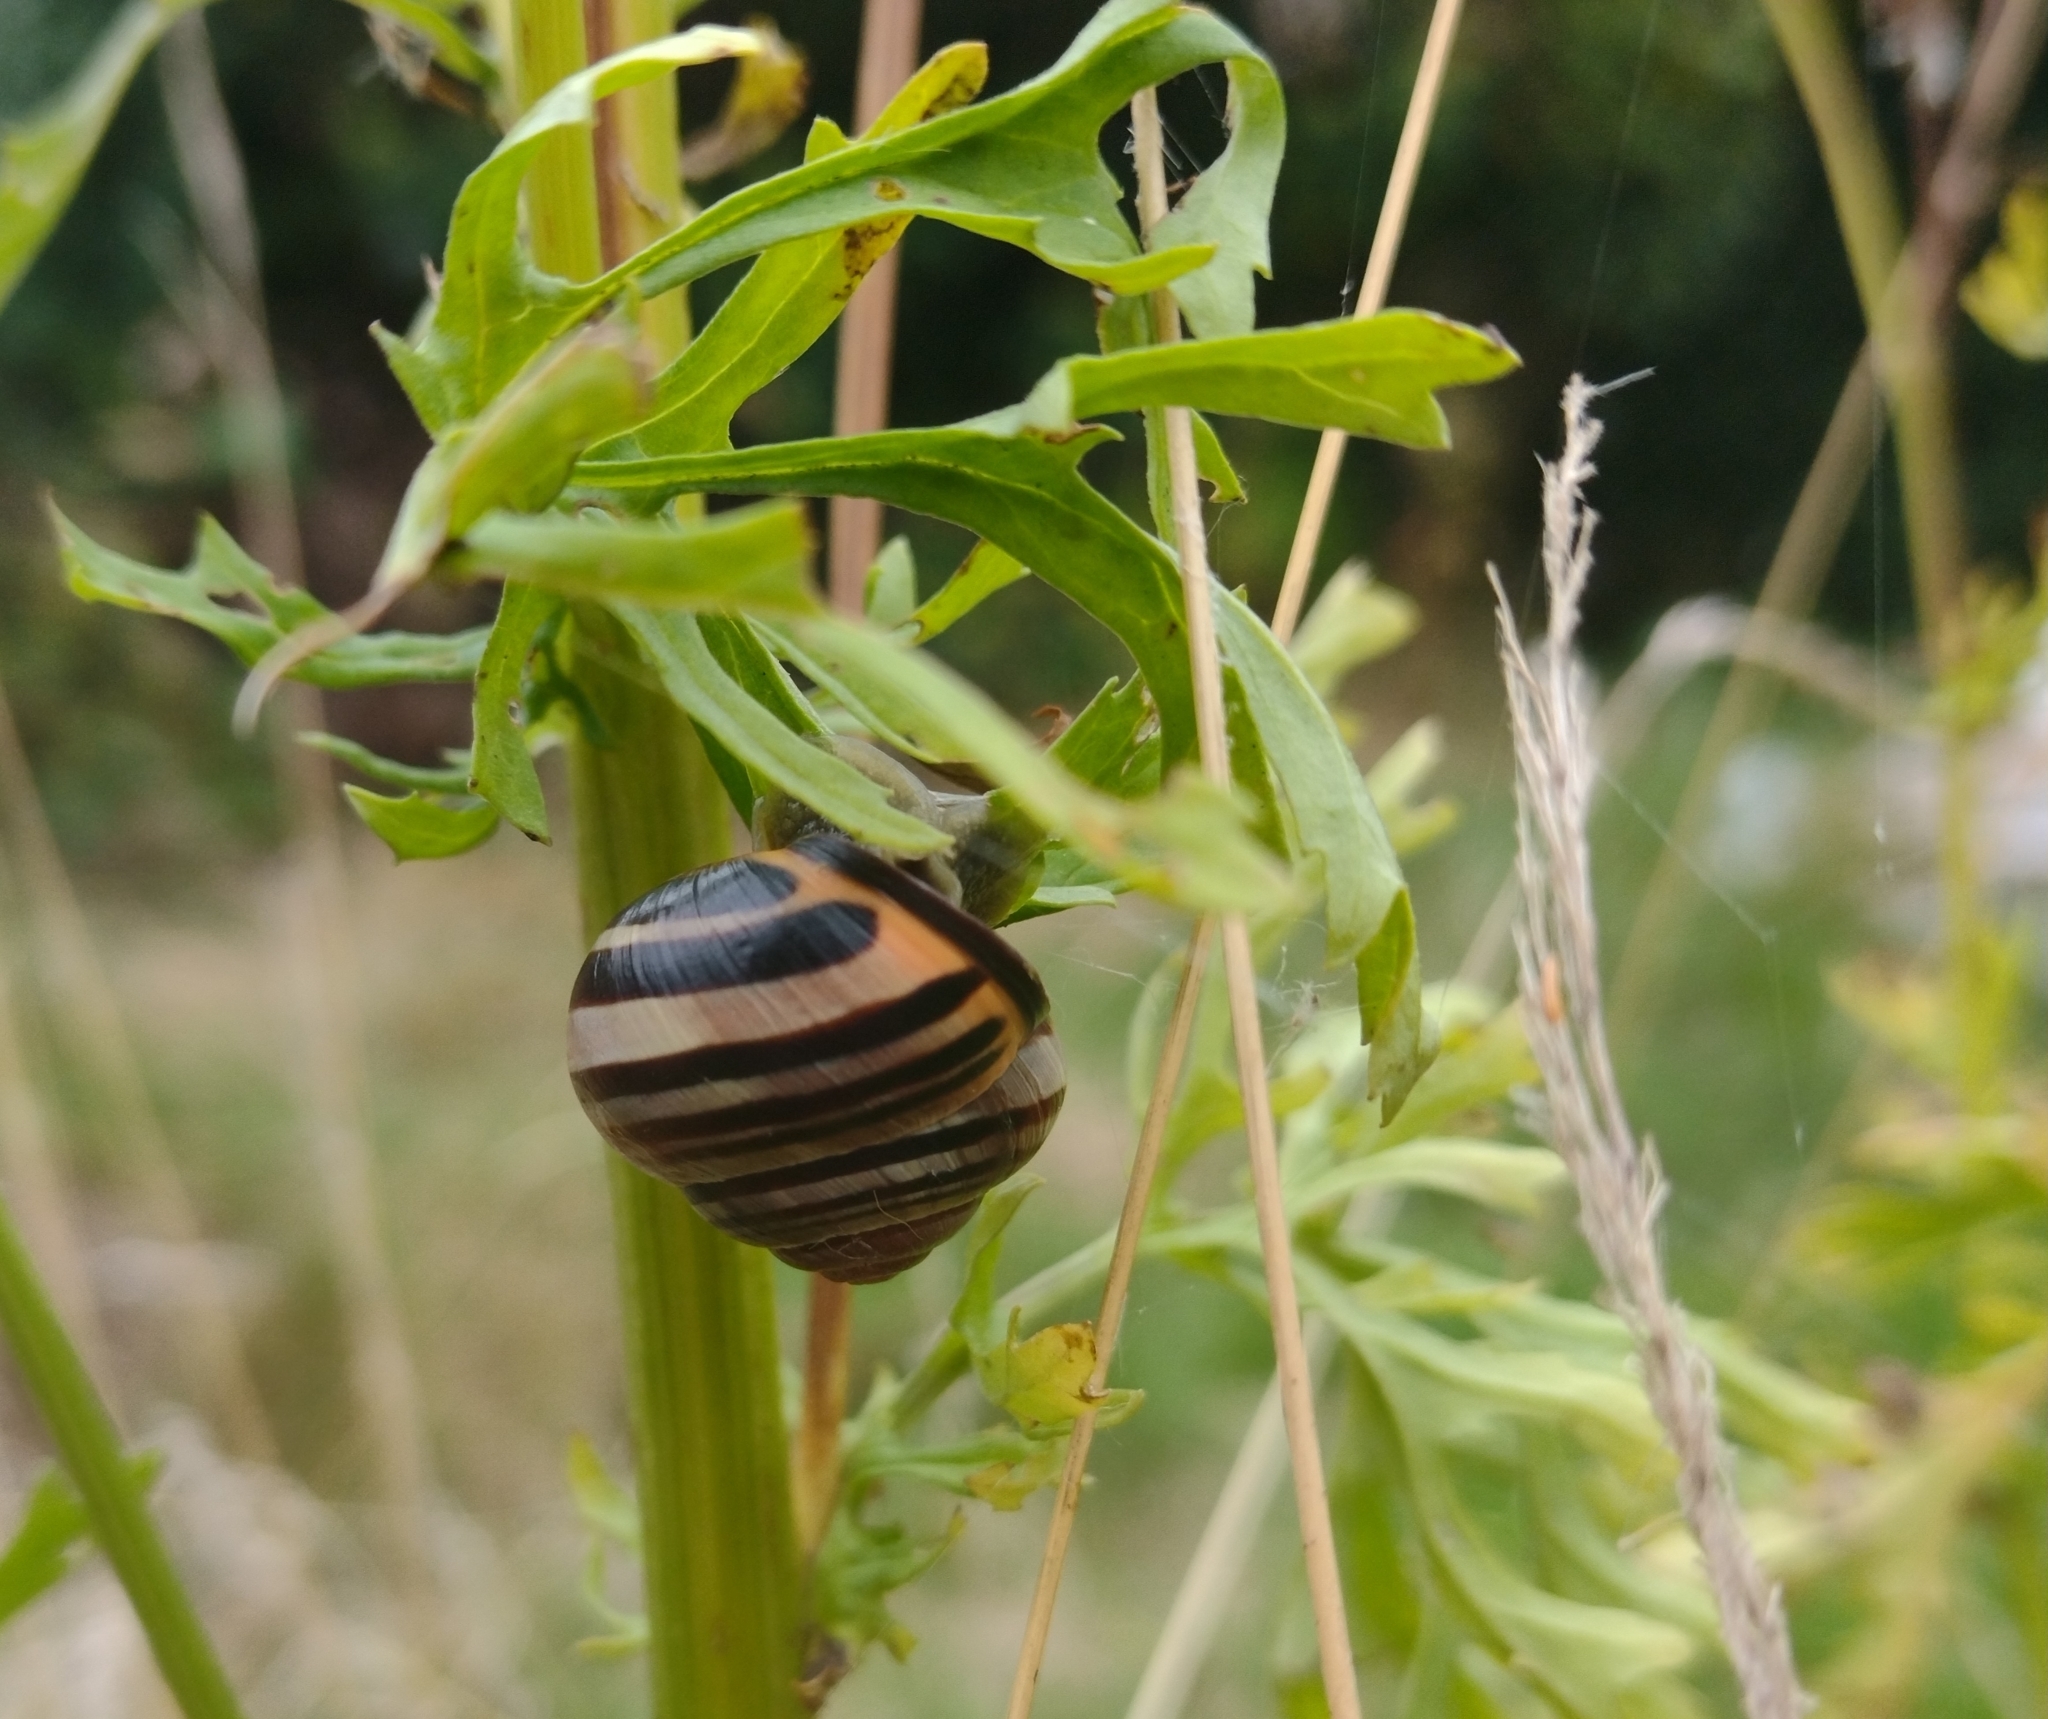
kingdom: Animalia
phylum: Mollusca
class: Gastropoda
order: Stylommatophora
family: Helicidae
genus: Cepaea
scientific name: Cepaea nemoralis
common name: Grovesnail
